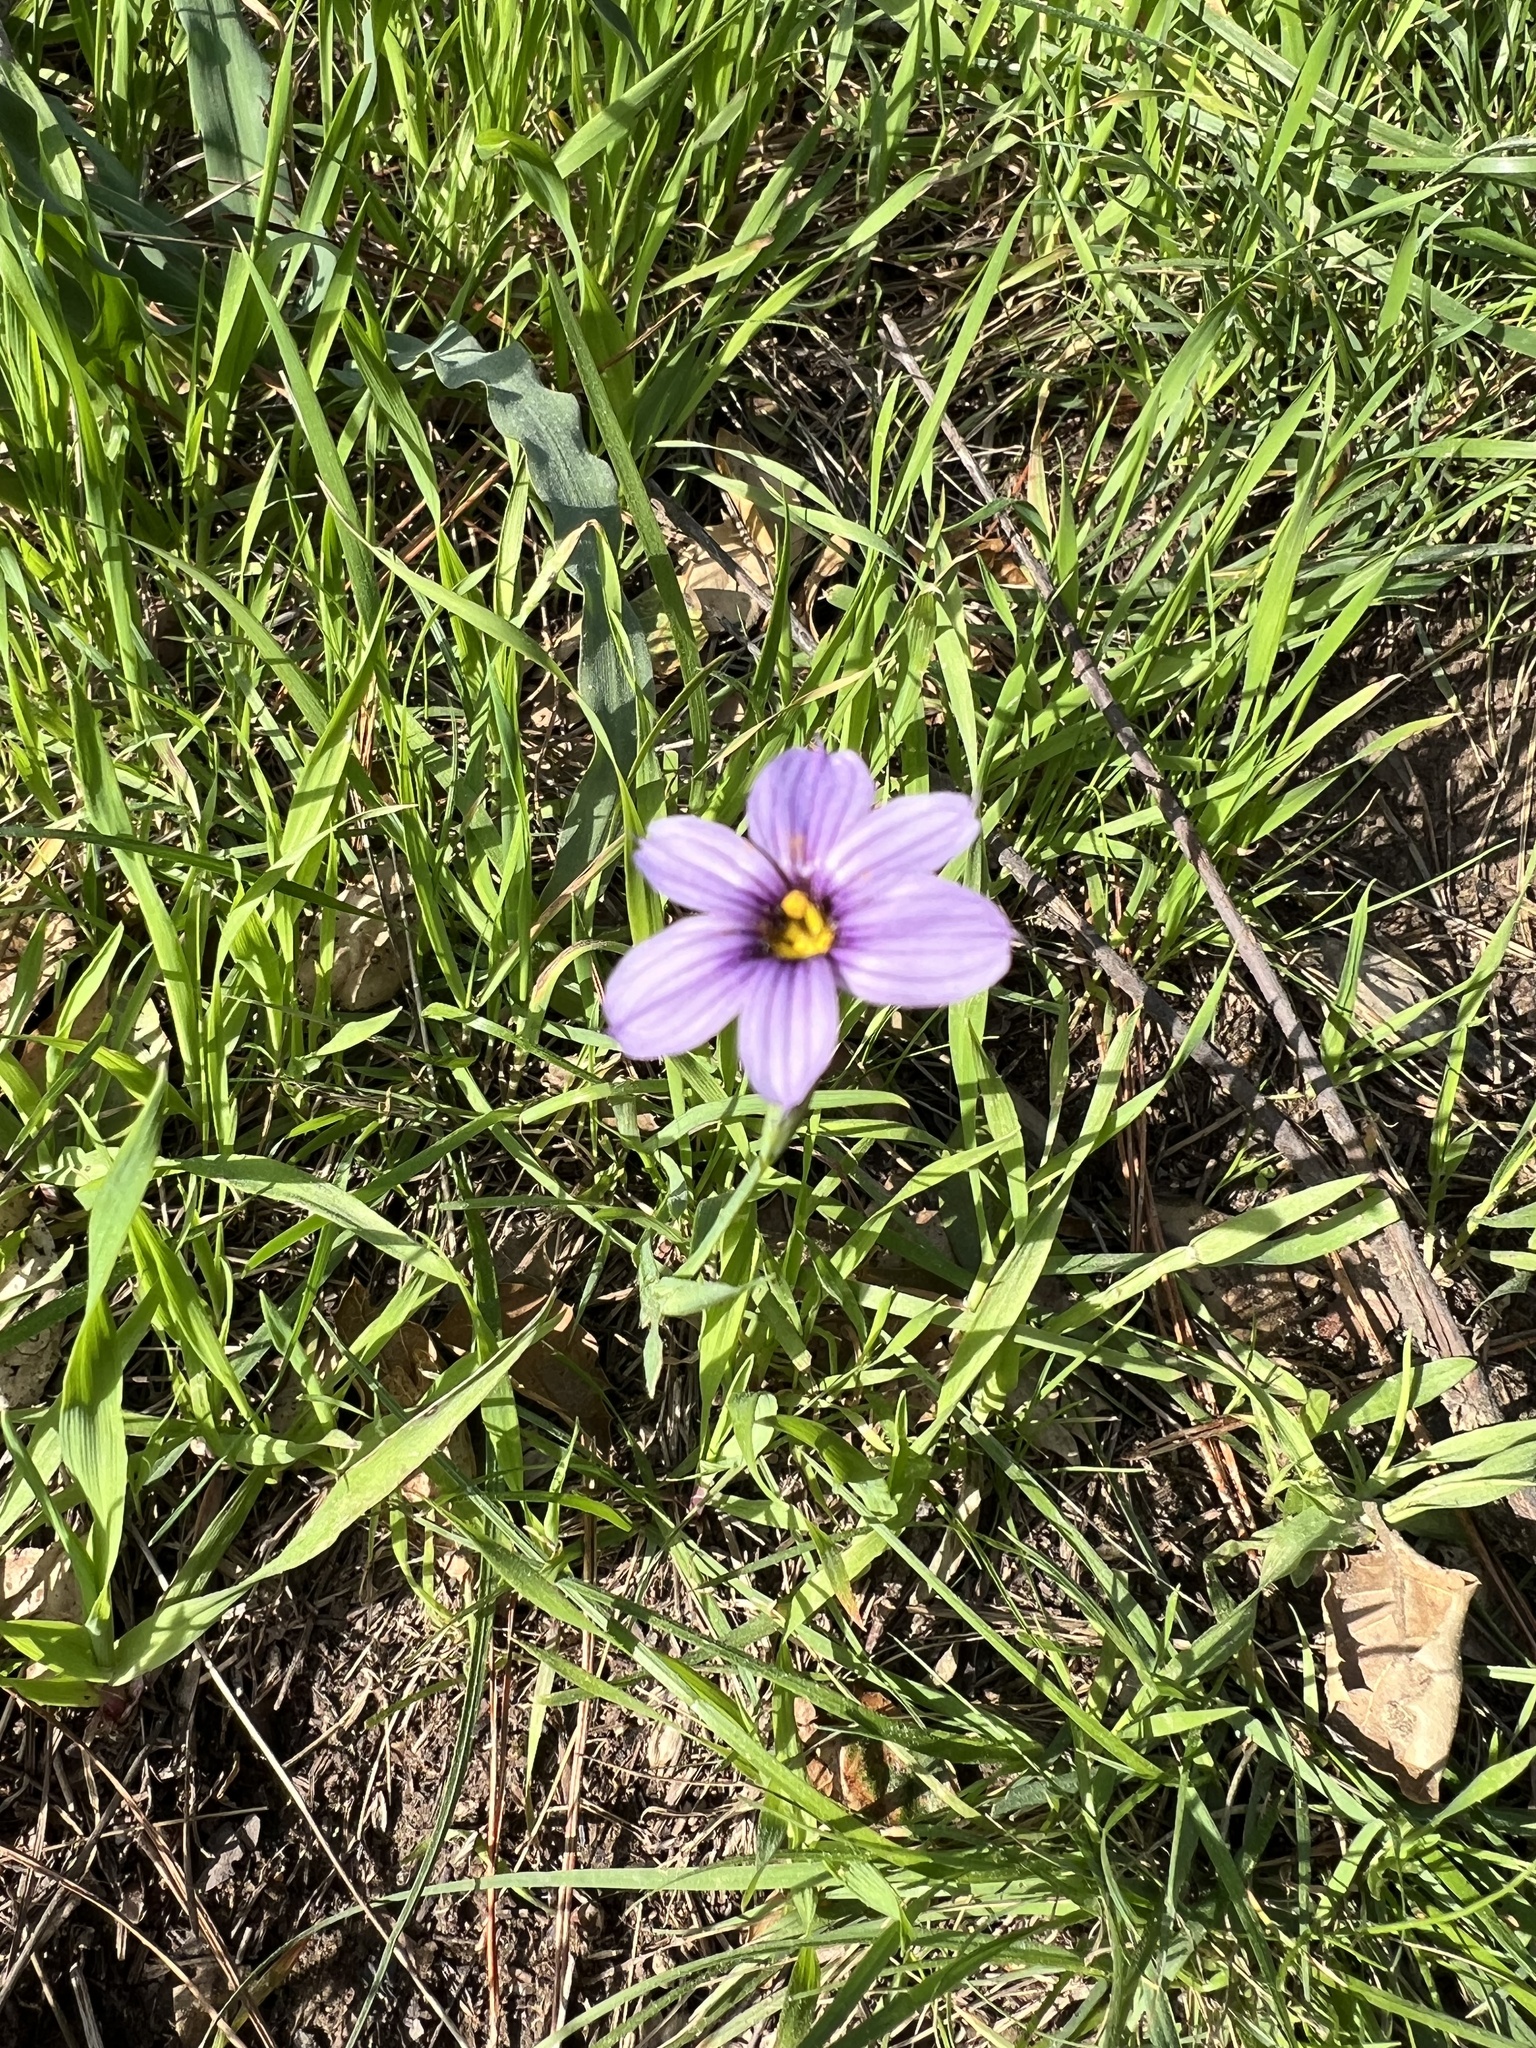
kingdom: Plantae
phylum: Tracheophyta
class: Liliopsida
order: Asparagales
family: Iridaceae
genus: Sisyrinchium
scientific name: Sisyrinchium bellum
